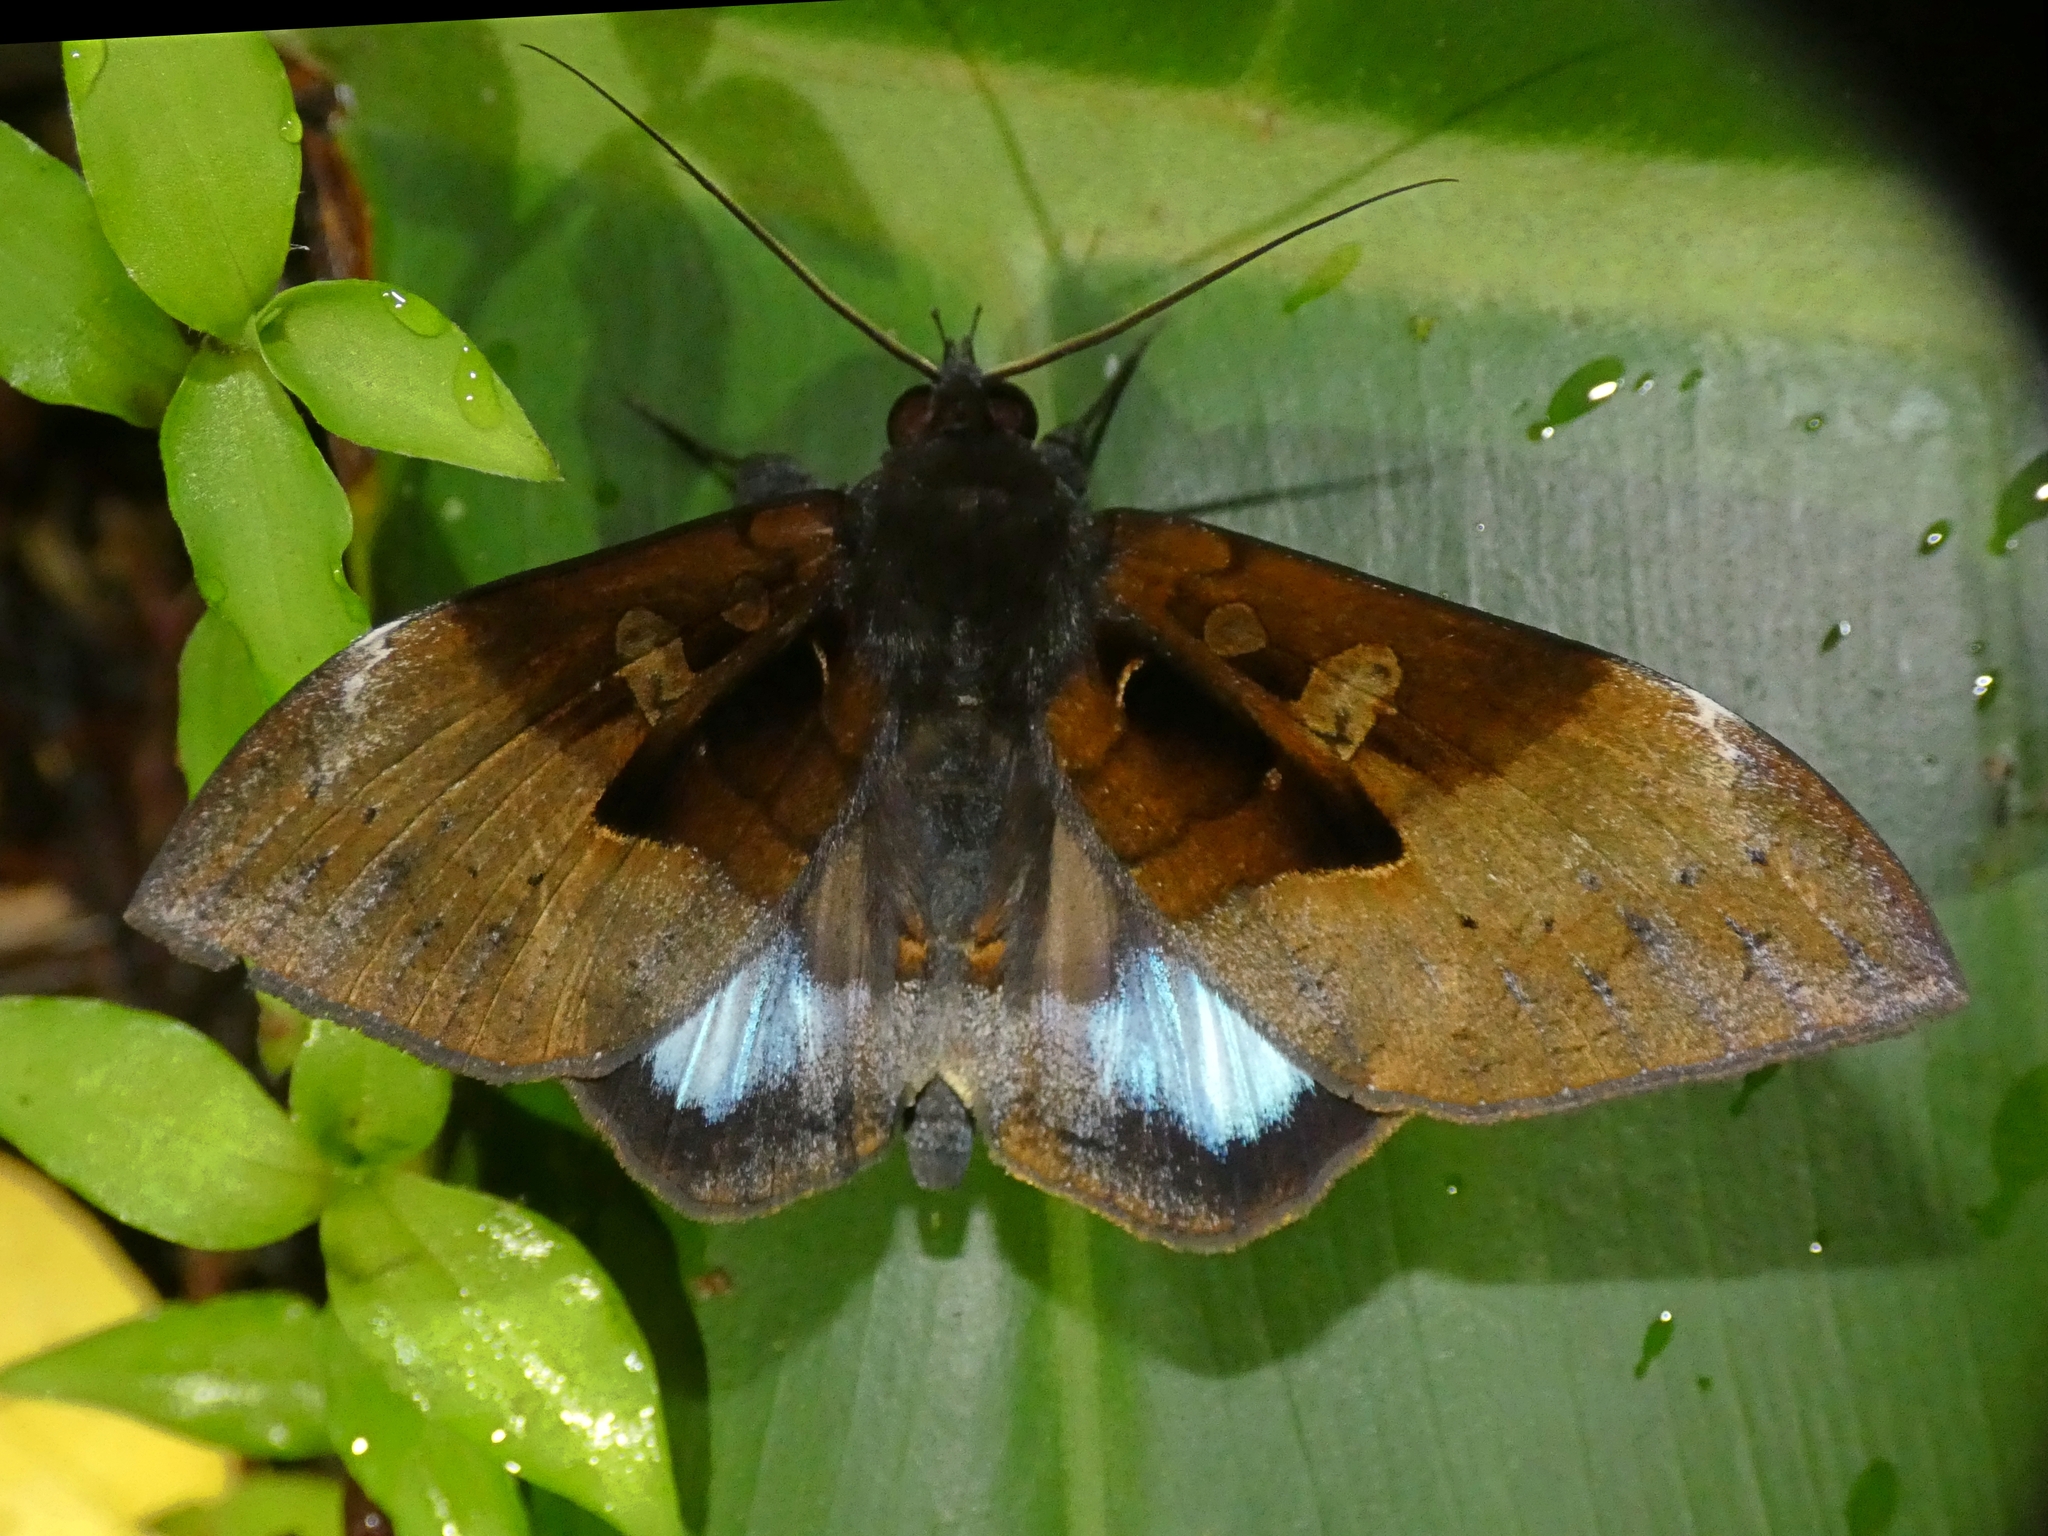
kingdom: Animalia
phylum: Arthropoda
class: Insecta
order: Lepidoptera
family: Erebidae
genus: Ischyja
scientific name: Ischyja manlia
